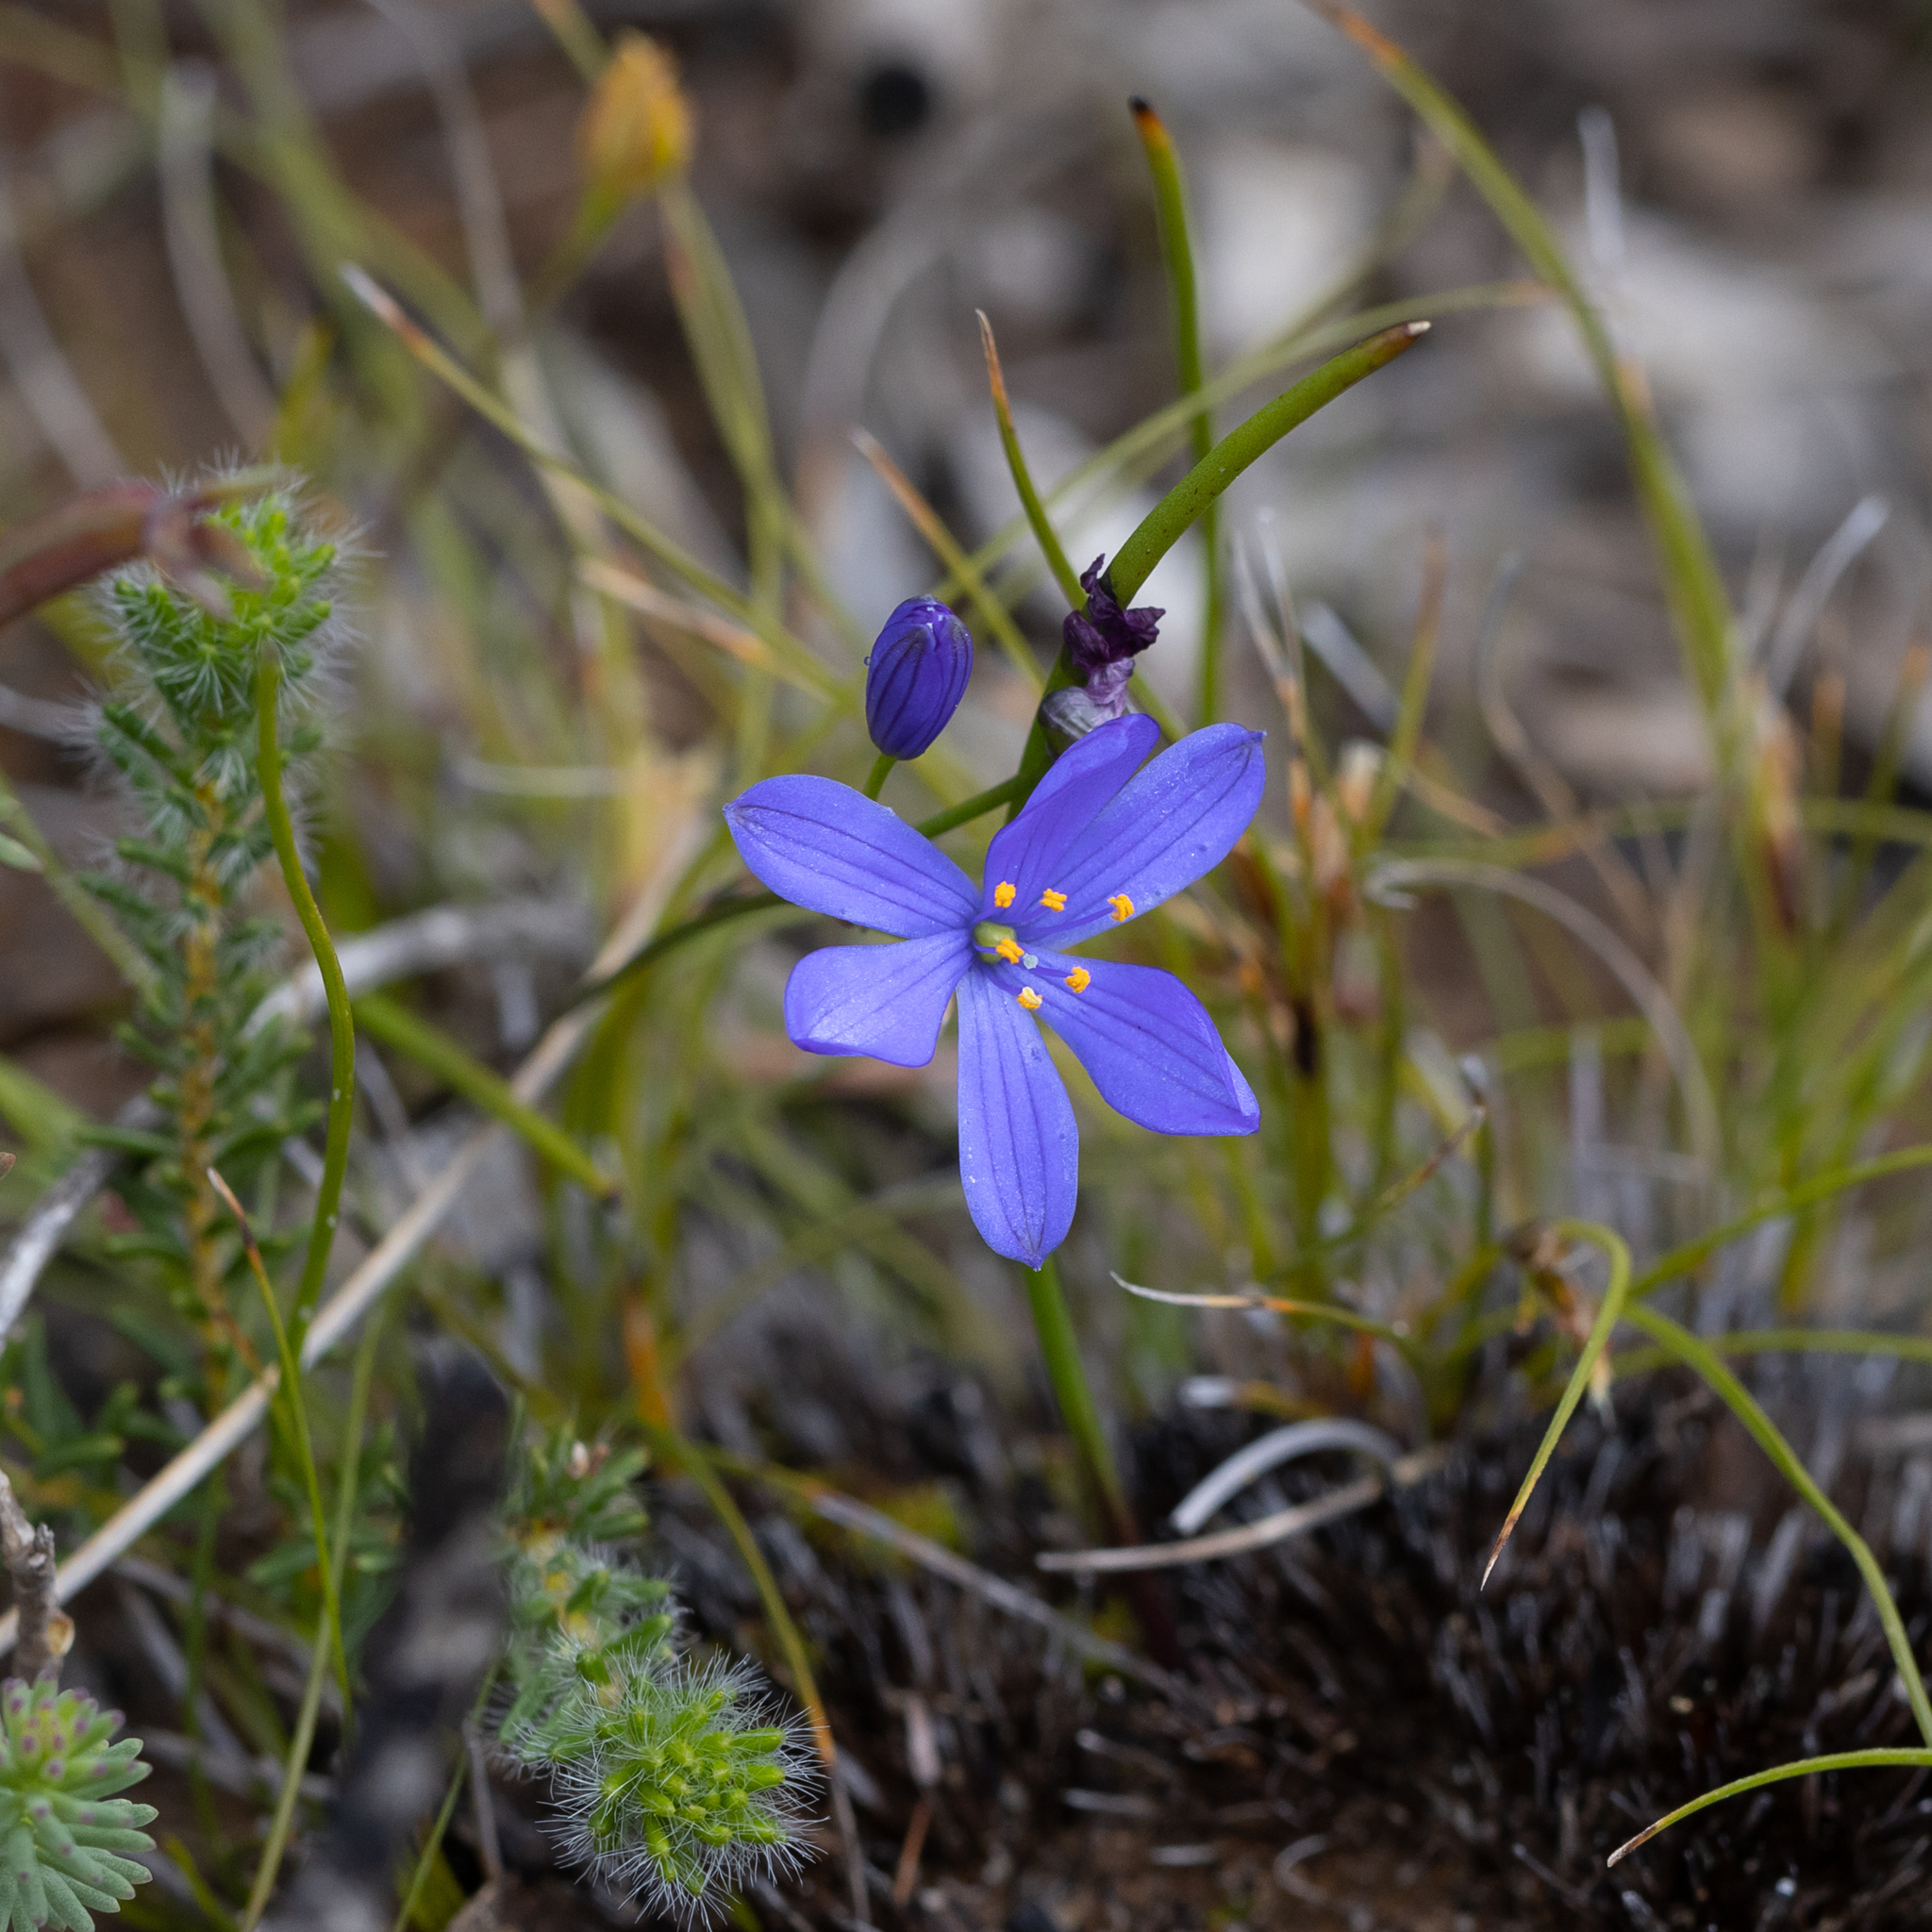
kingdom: Plantae
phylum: Tracheophyta
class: Liliopsida
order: Asparagales
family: Asphodelaceae
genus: Chamaescilla
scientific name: Chamaescilla corymbosa
